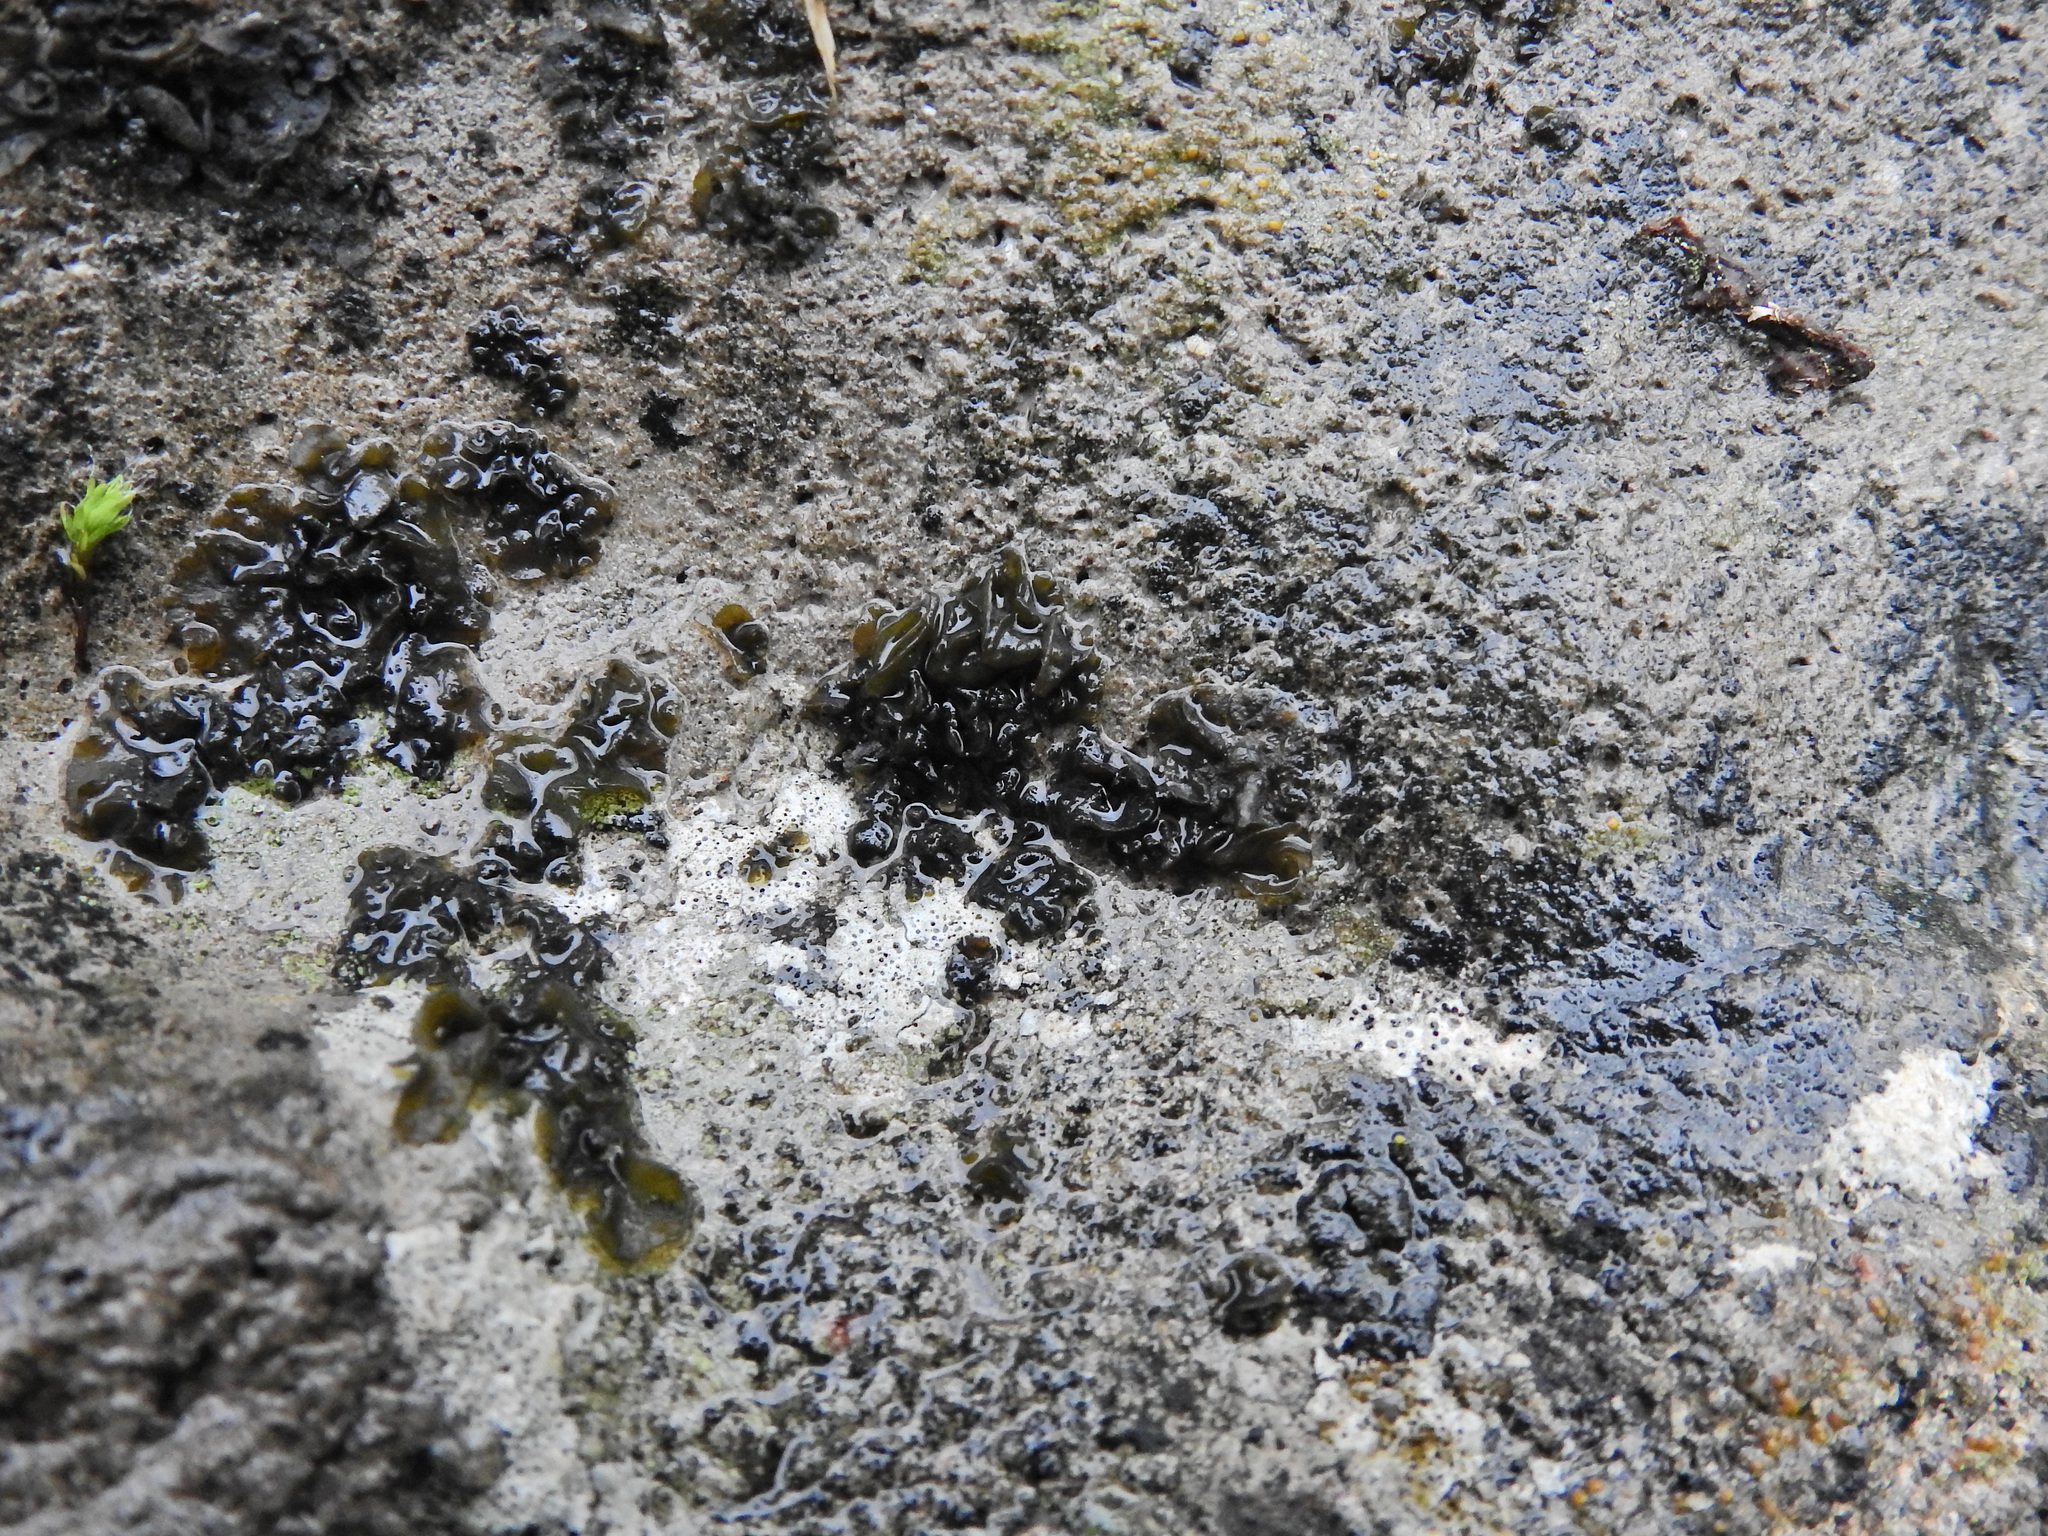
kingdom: Bacteria
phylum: Cyanobacteria
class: Cyanobacteriia
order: Cyanobacteriales
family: Nostocaceae
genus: Nostoc
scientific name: Nostoc commune
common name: Star jelly
